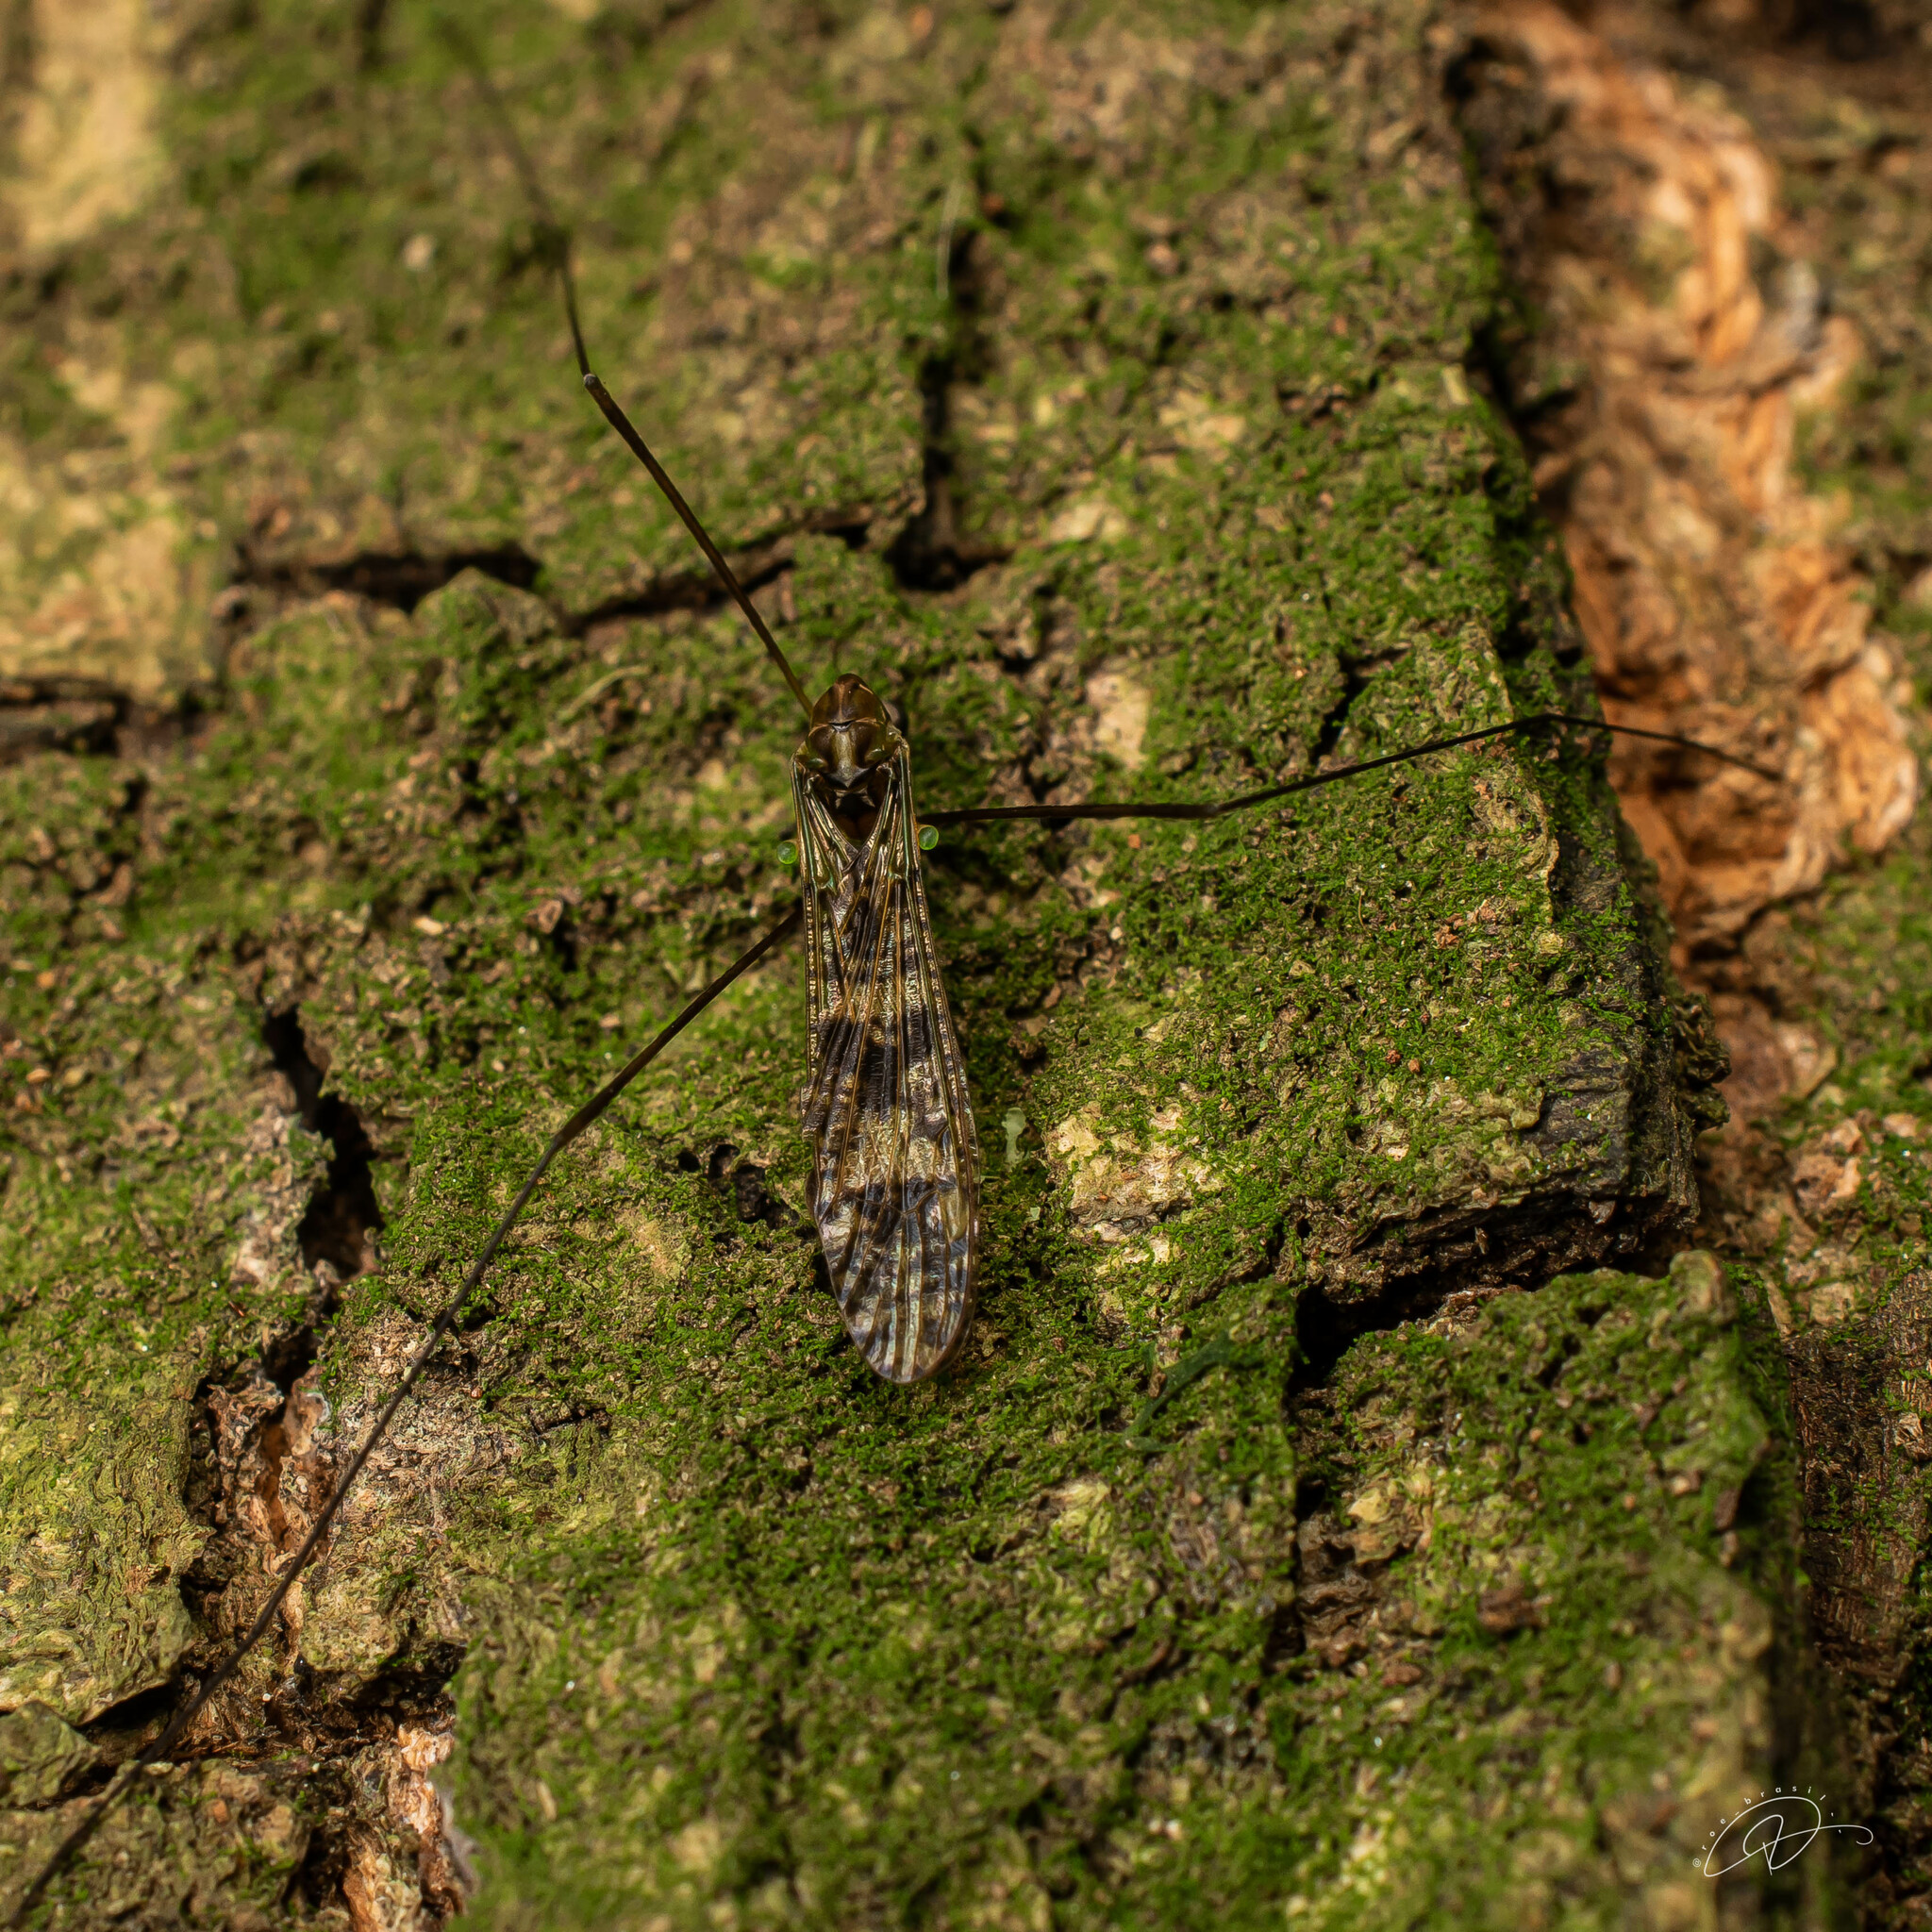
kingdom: Animalia
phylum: Arthropoda
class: Insecta
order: Diptera
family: Limoniidae
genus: Dicranomyia
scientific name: Dicranomyia diva
